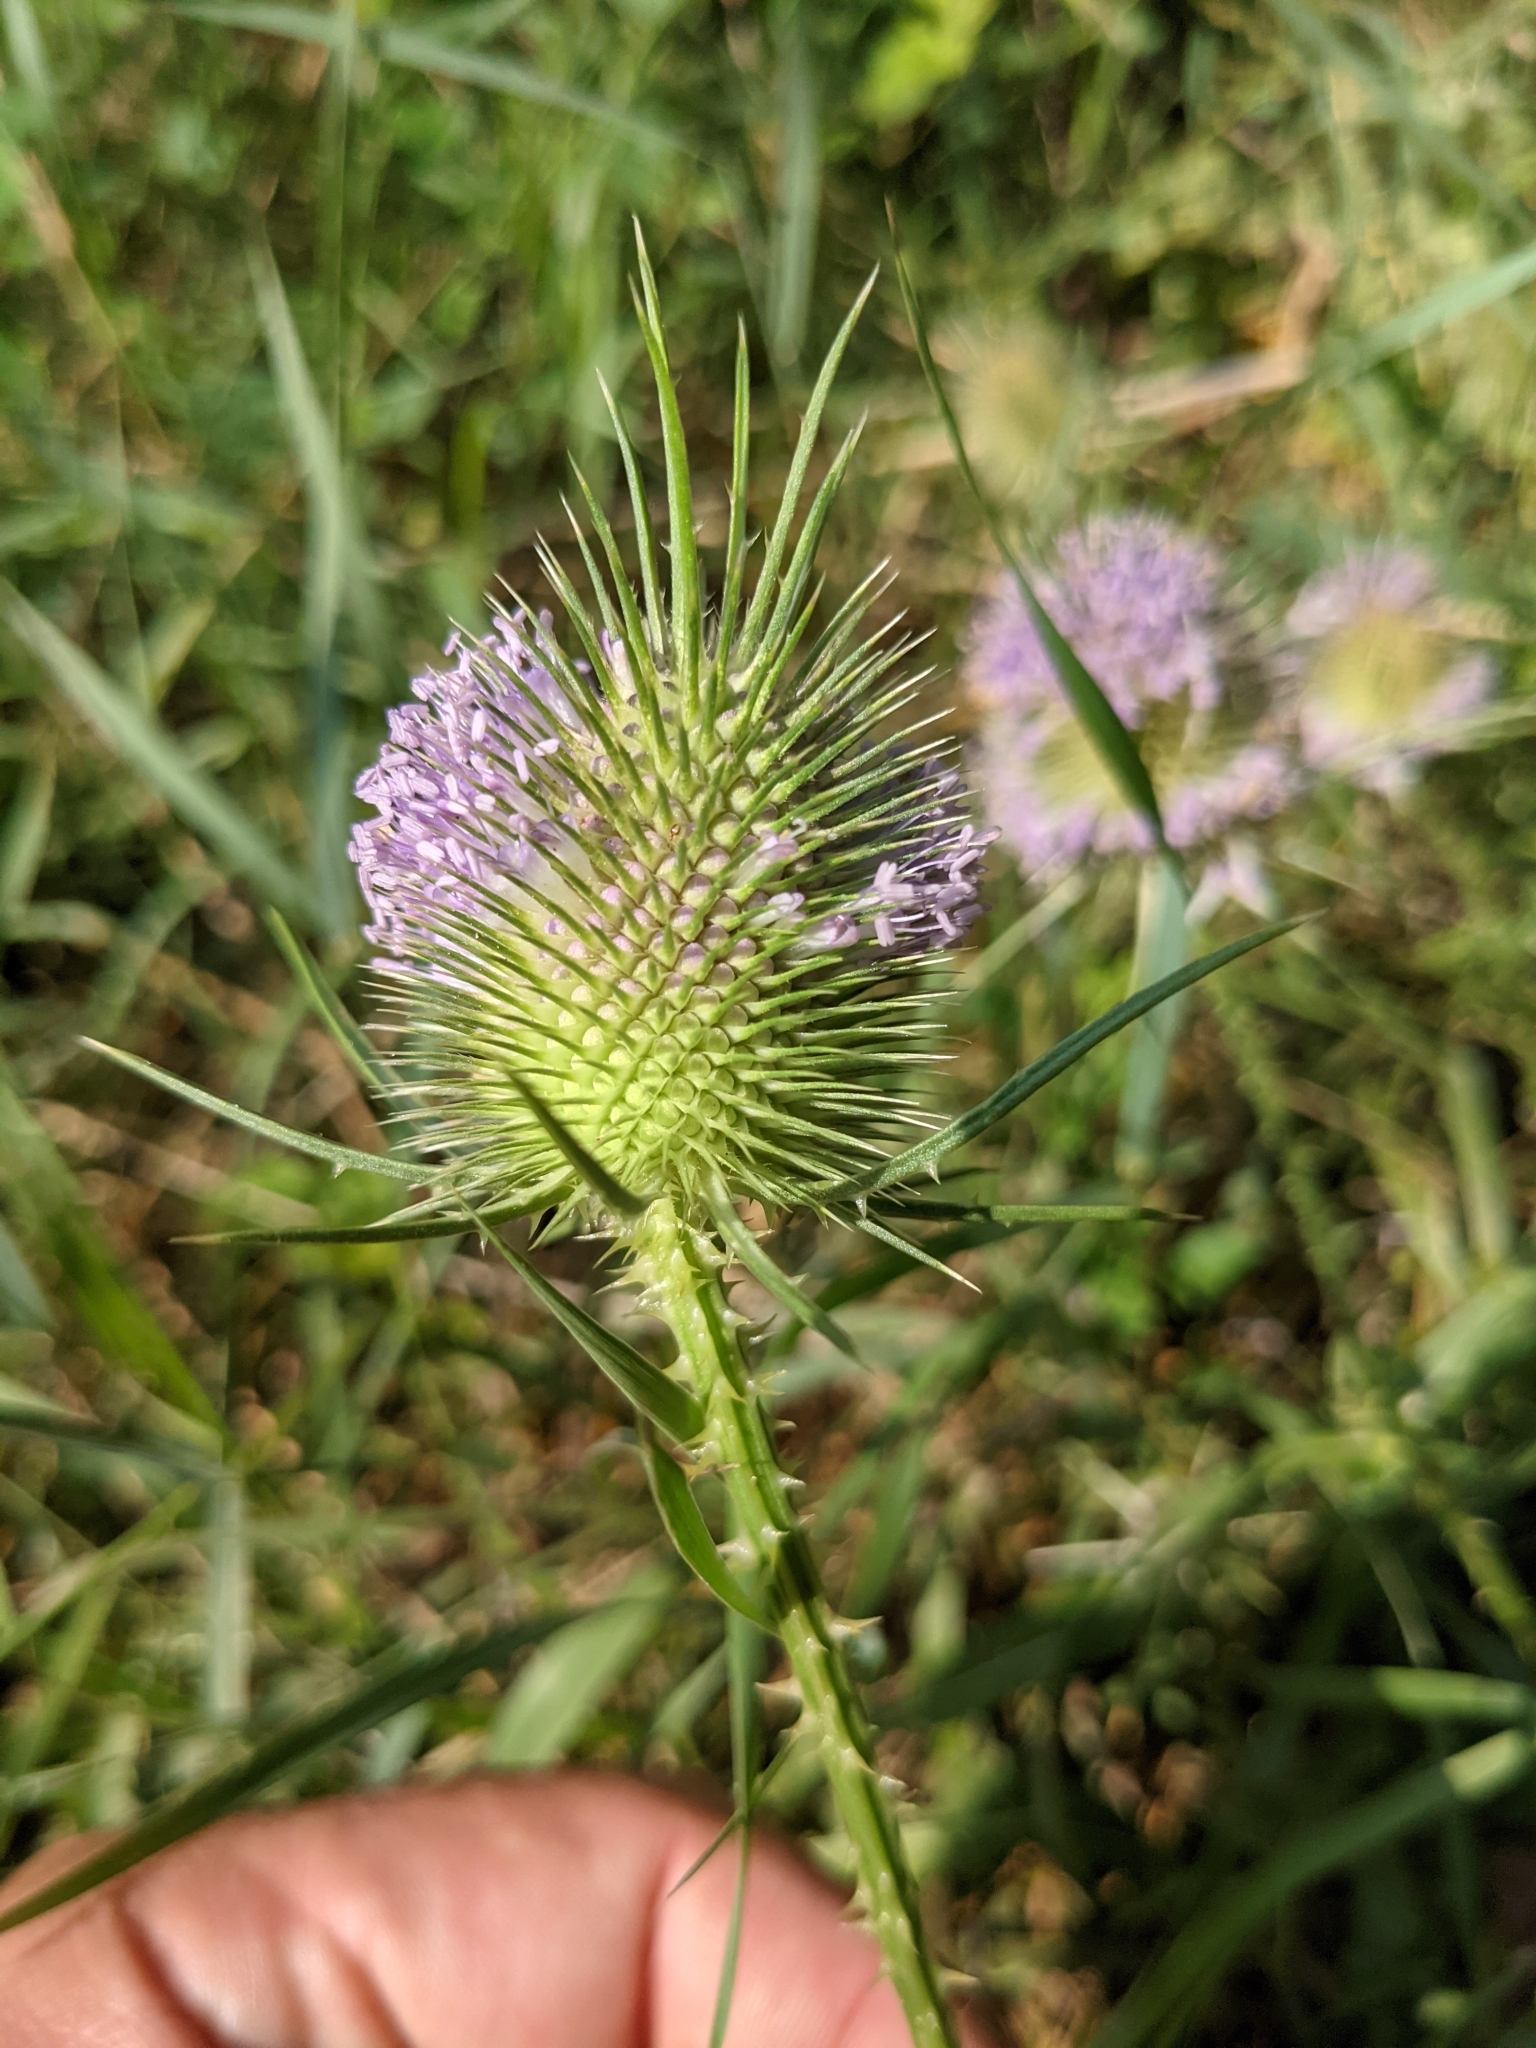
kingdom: Plantae
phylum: Tracheophyta
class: Magnoliopsida
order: Dipsacales
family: Caprifoliaceae
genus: Dipsacus
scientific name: Dipsacus fullonum
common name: Teasel
